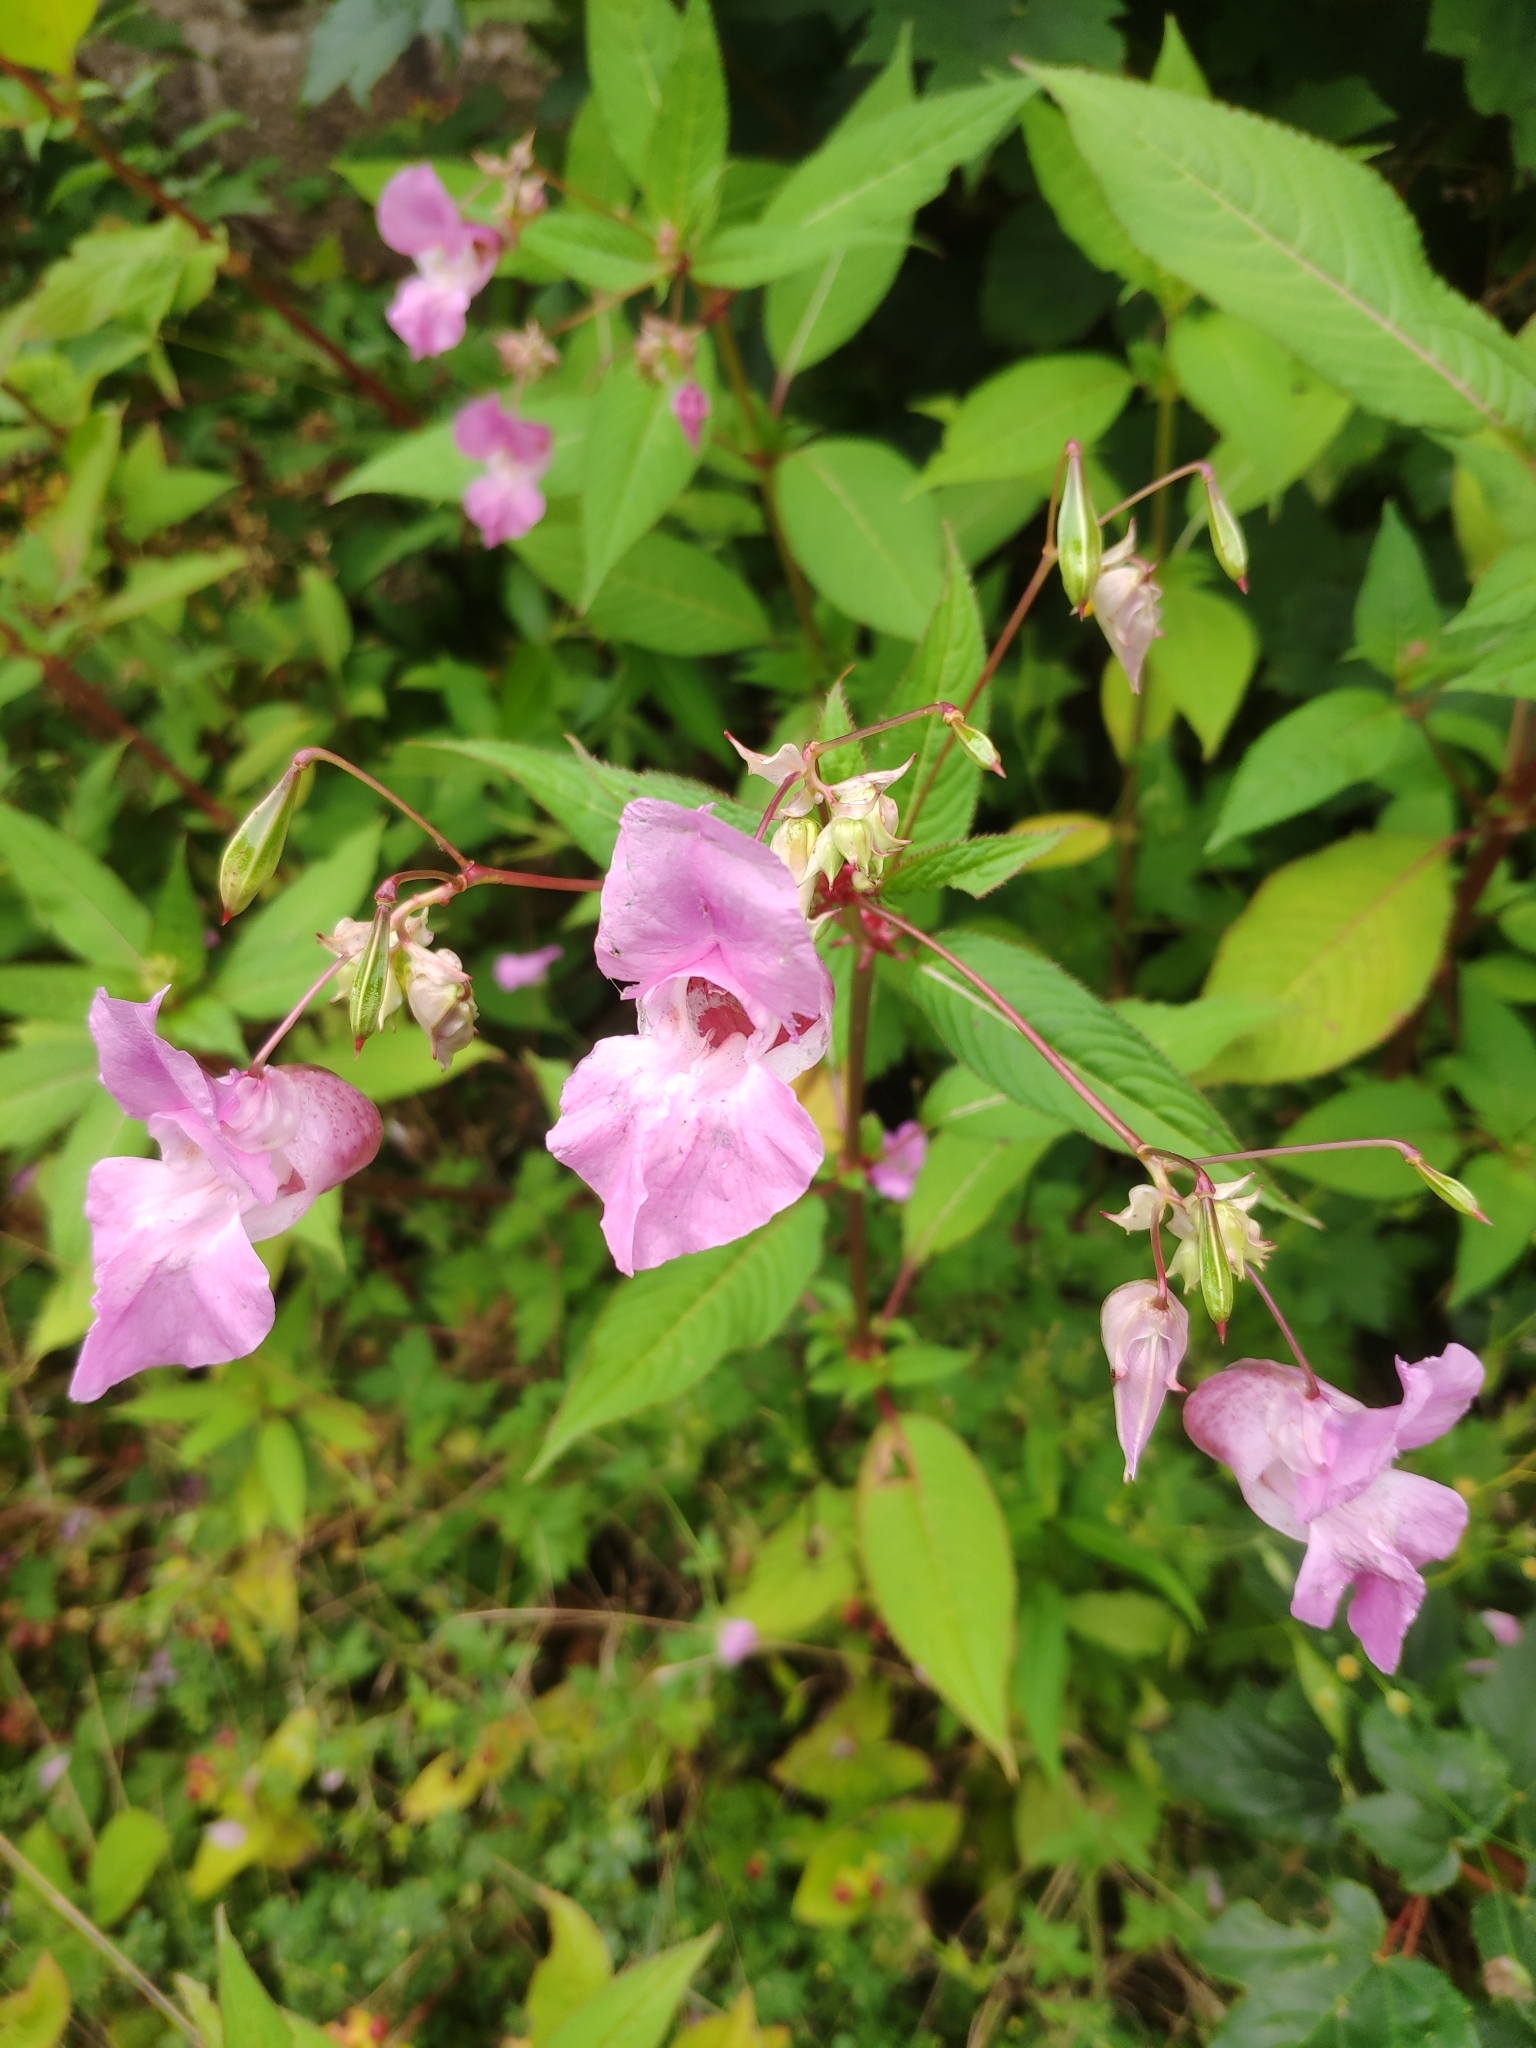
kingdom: Plantae
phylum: Tracheophyta
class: Magnoliopsida
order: Ericales
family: Balsaminaceae
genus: Impatiens
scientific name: Impatiens glandulifera
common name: Himalayan balsam
